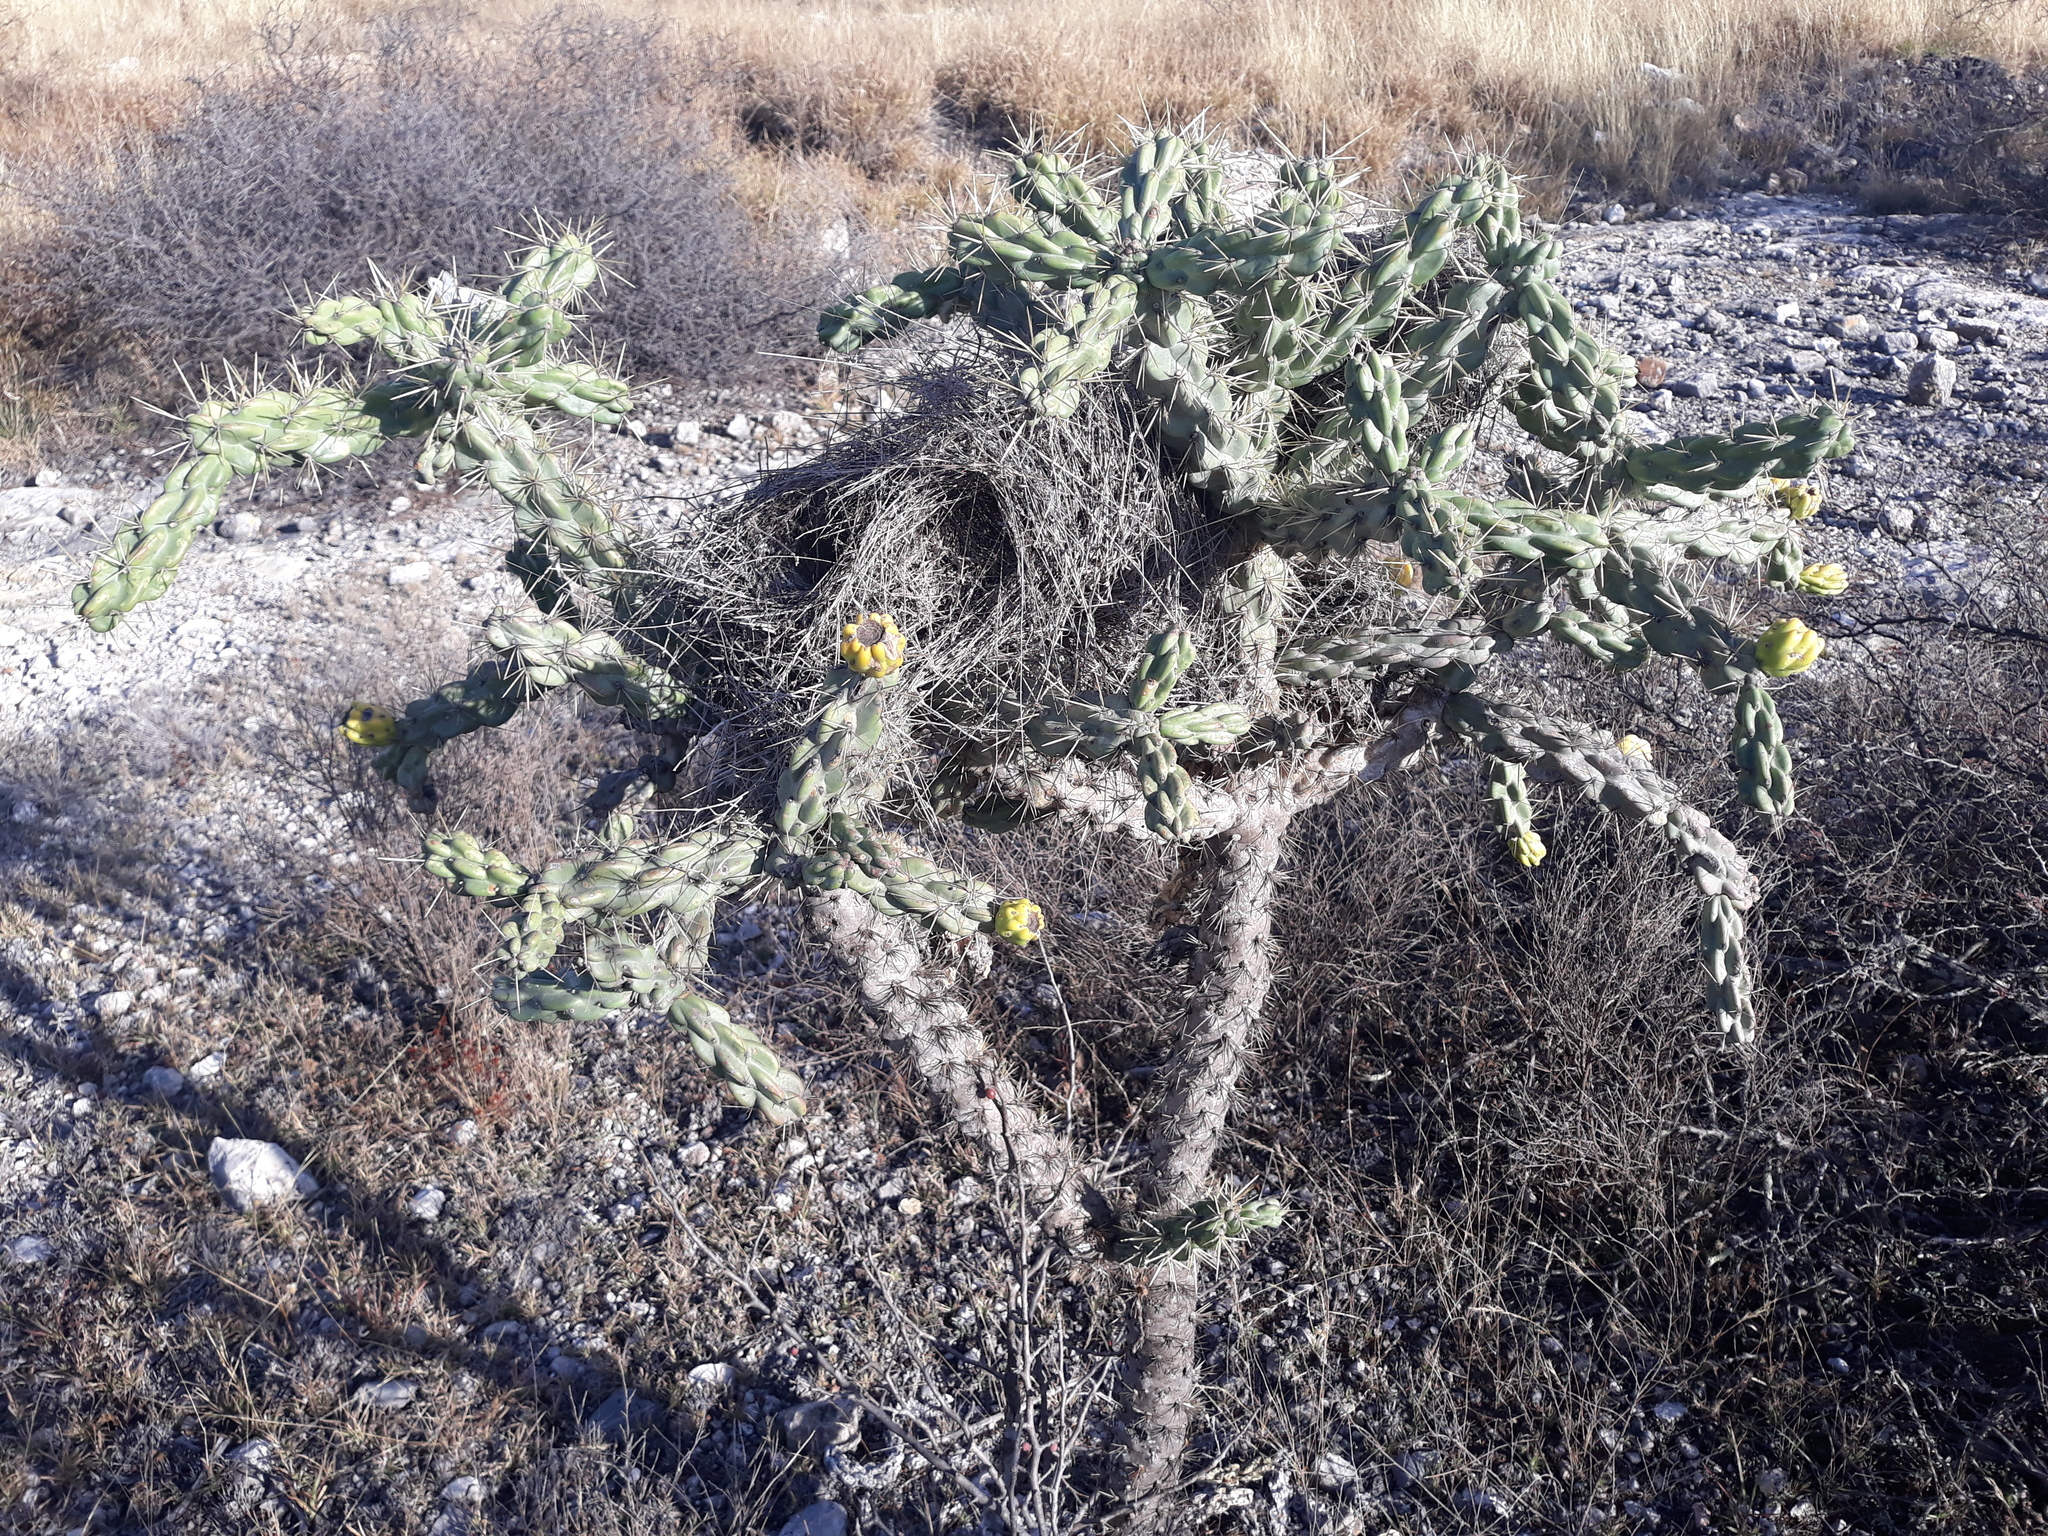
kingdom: Plantae
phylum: Tracheophyta
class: Magnoliopsida
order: Caryophyllales
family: Cactaceae
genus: Cylindropuntia
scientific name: Cylindropuntia imbricata
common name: Candelabrum cactus
